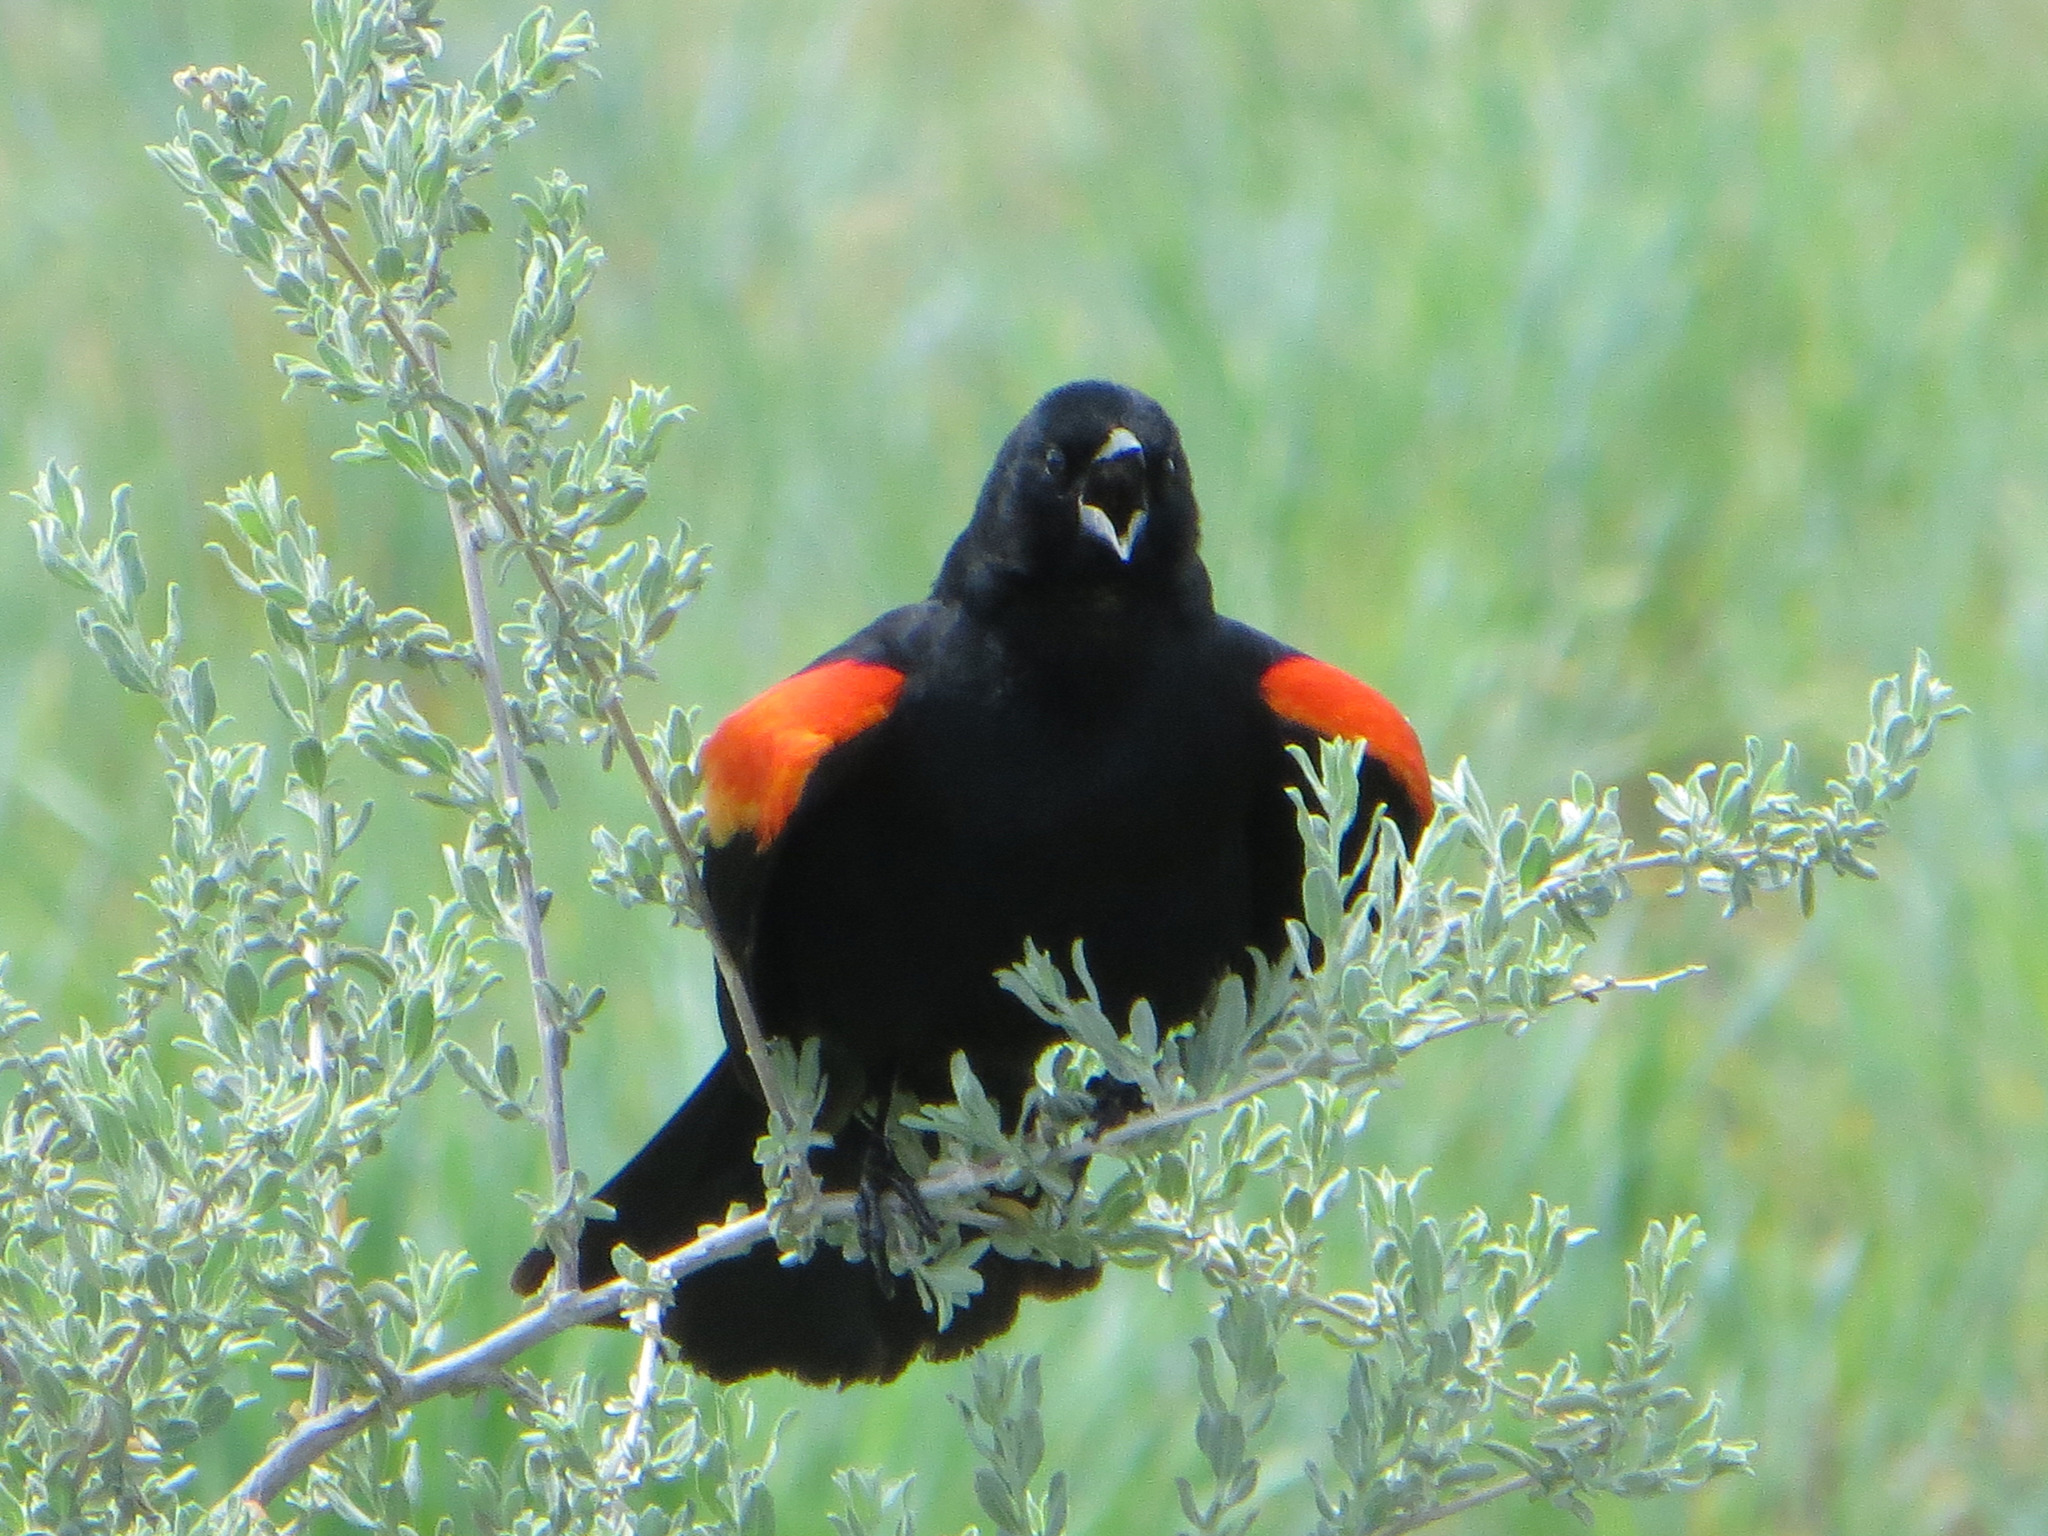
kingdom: Animalia
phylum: Chordata
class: Aves
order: Passeriformes
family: Icteridae
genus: Agelaius
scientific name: Agelaius phoeniceus
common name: Red-winged blackbird
